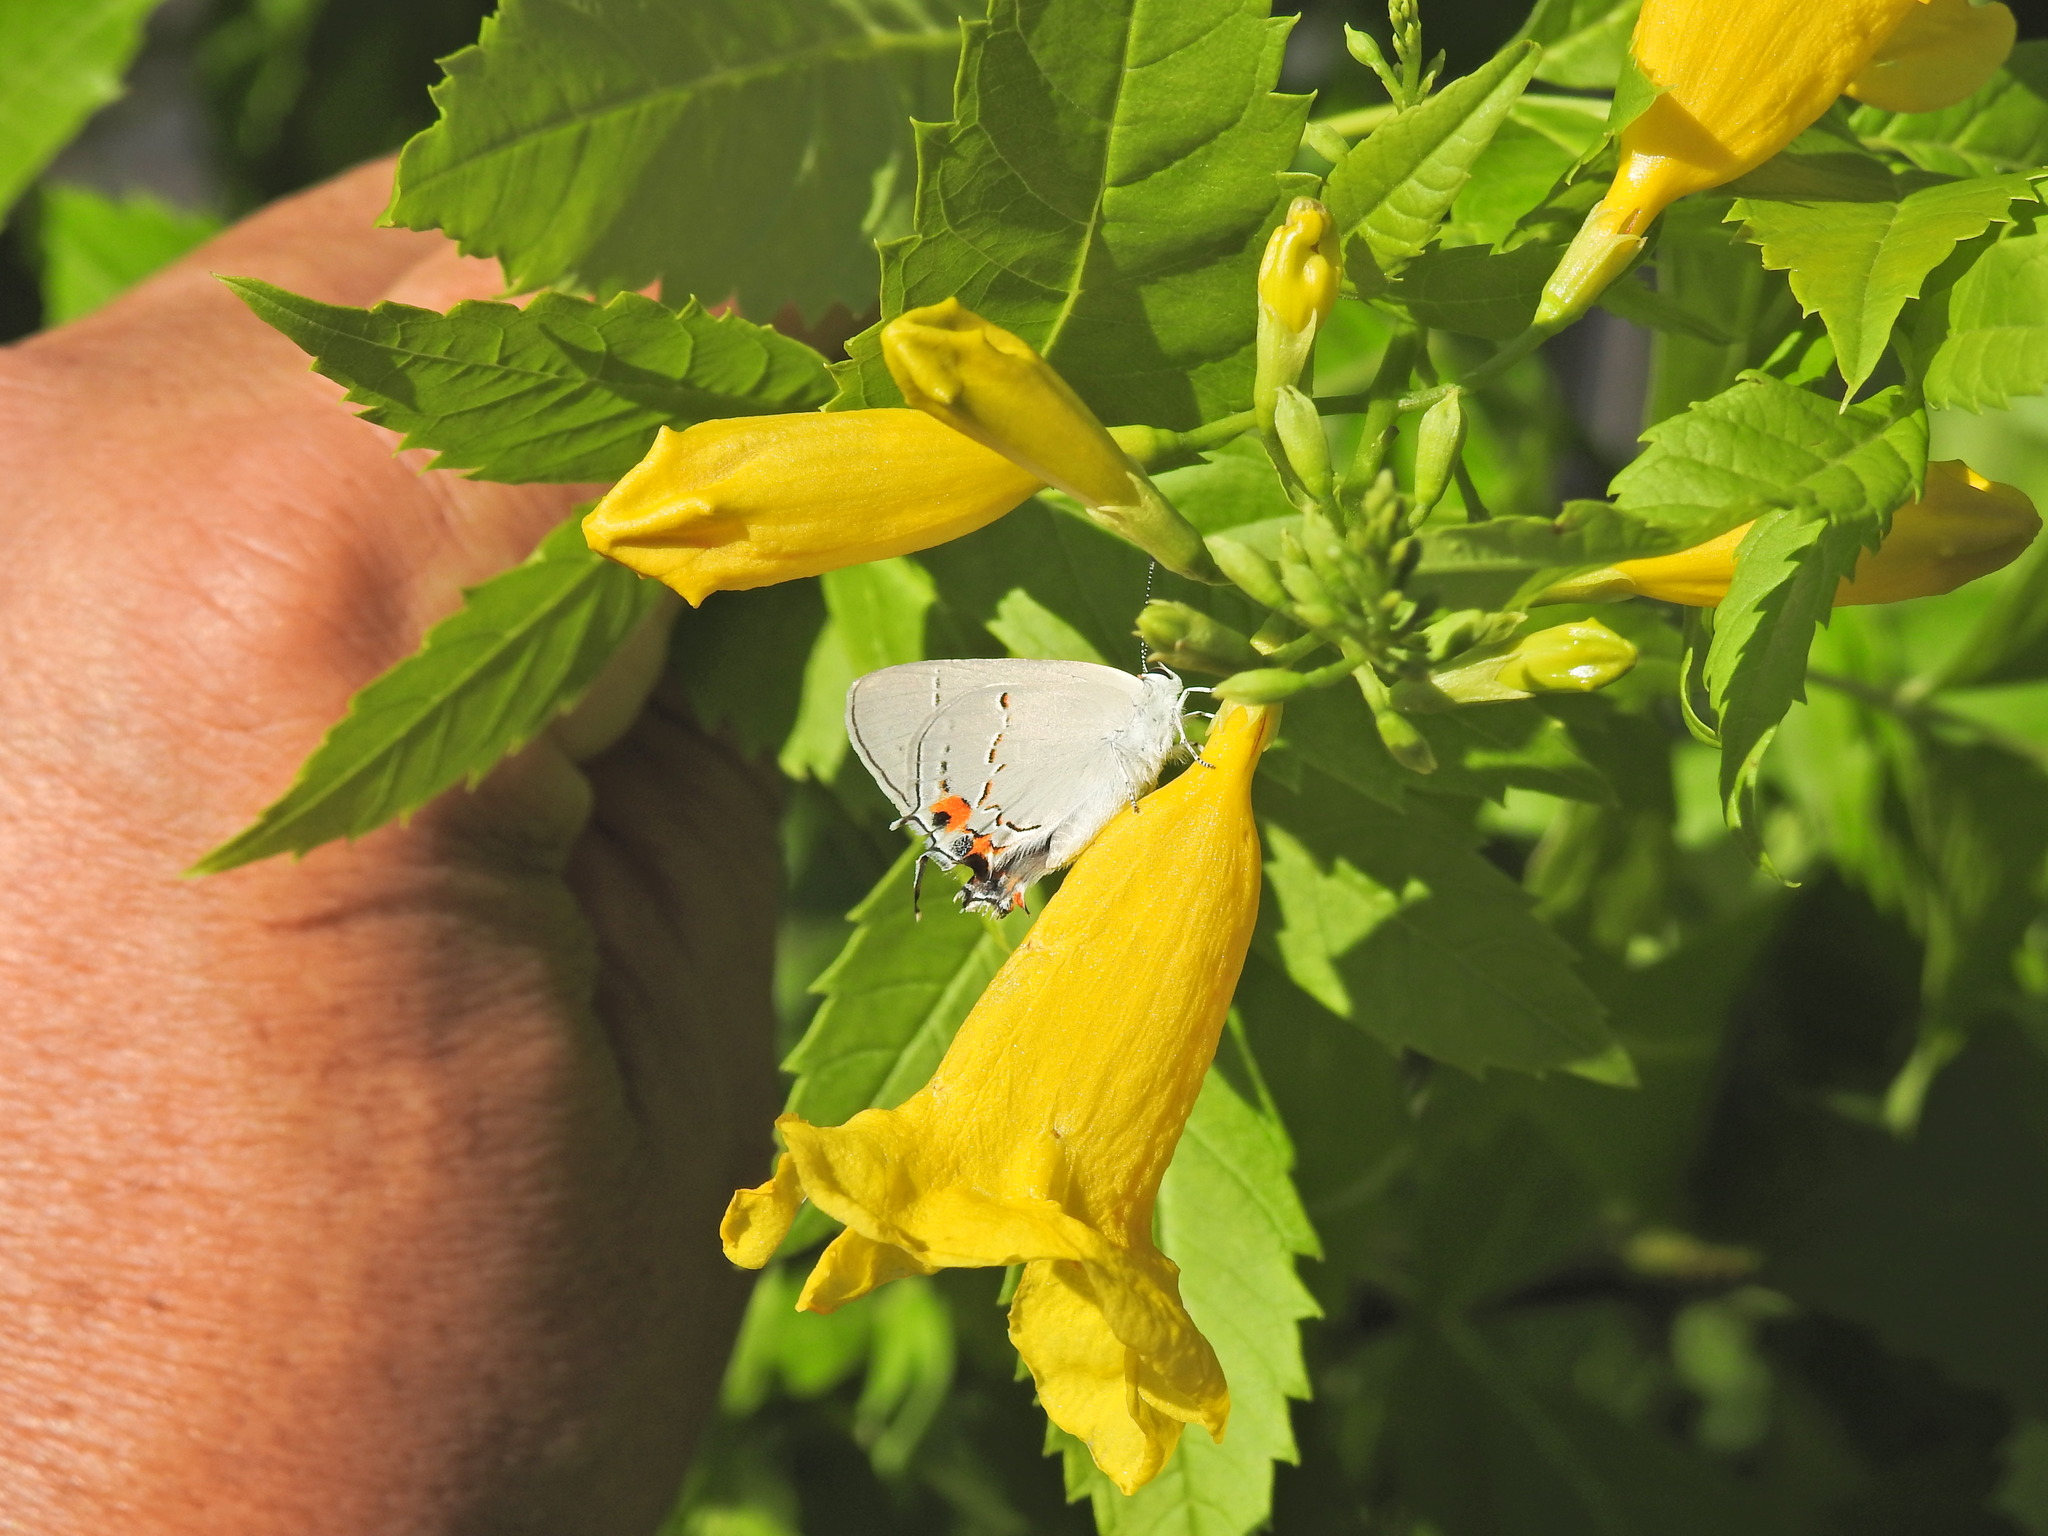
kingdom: Animalia
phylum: Arthropoda
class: Insecta
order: Lepidoptera
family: Lycaenidae
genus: Strymon
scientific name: Strymon melinus
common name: Gray hairstreak
